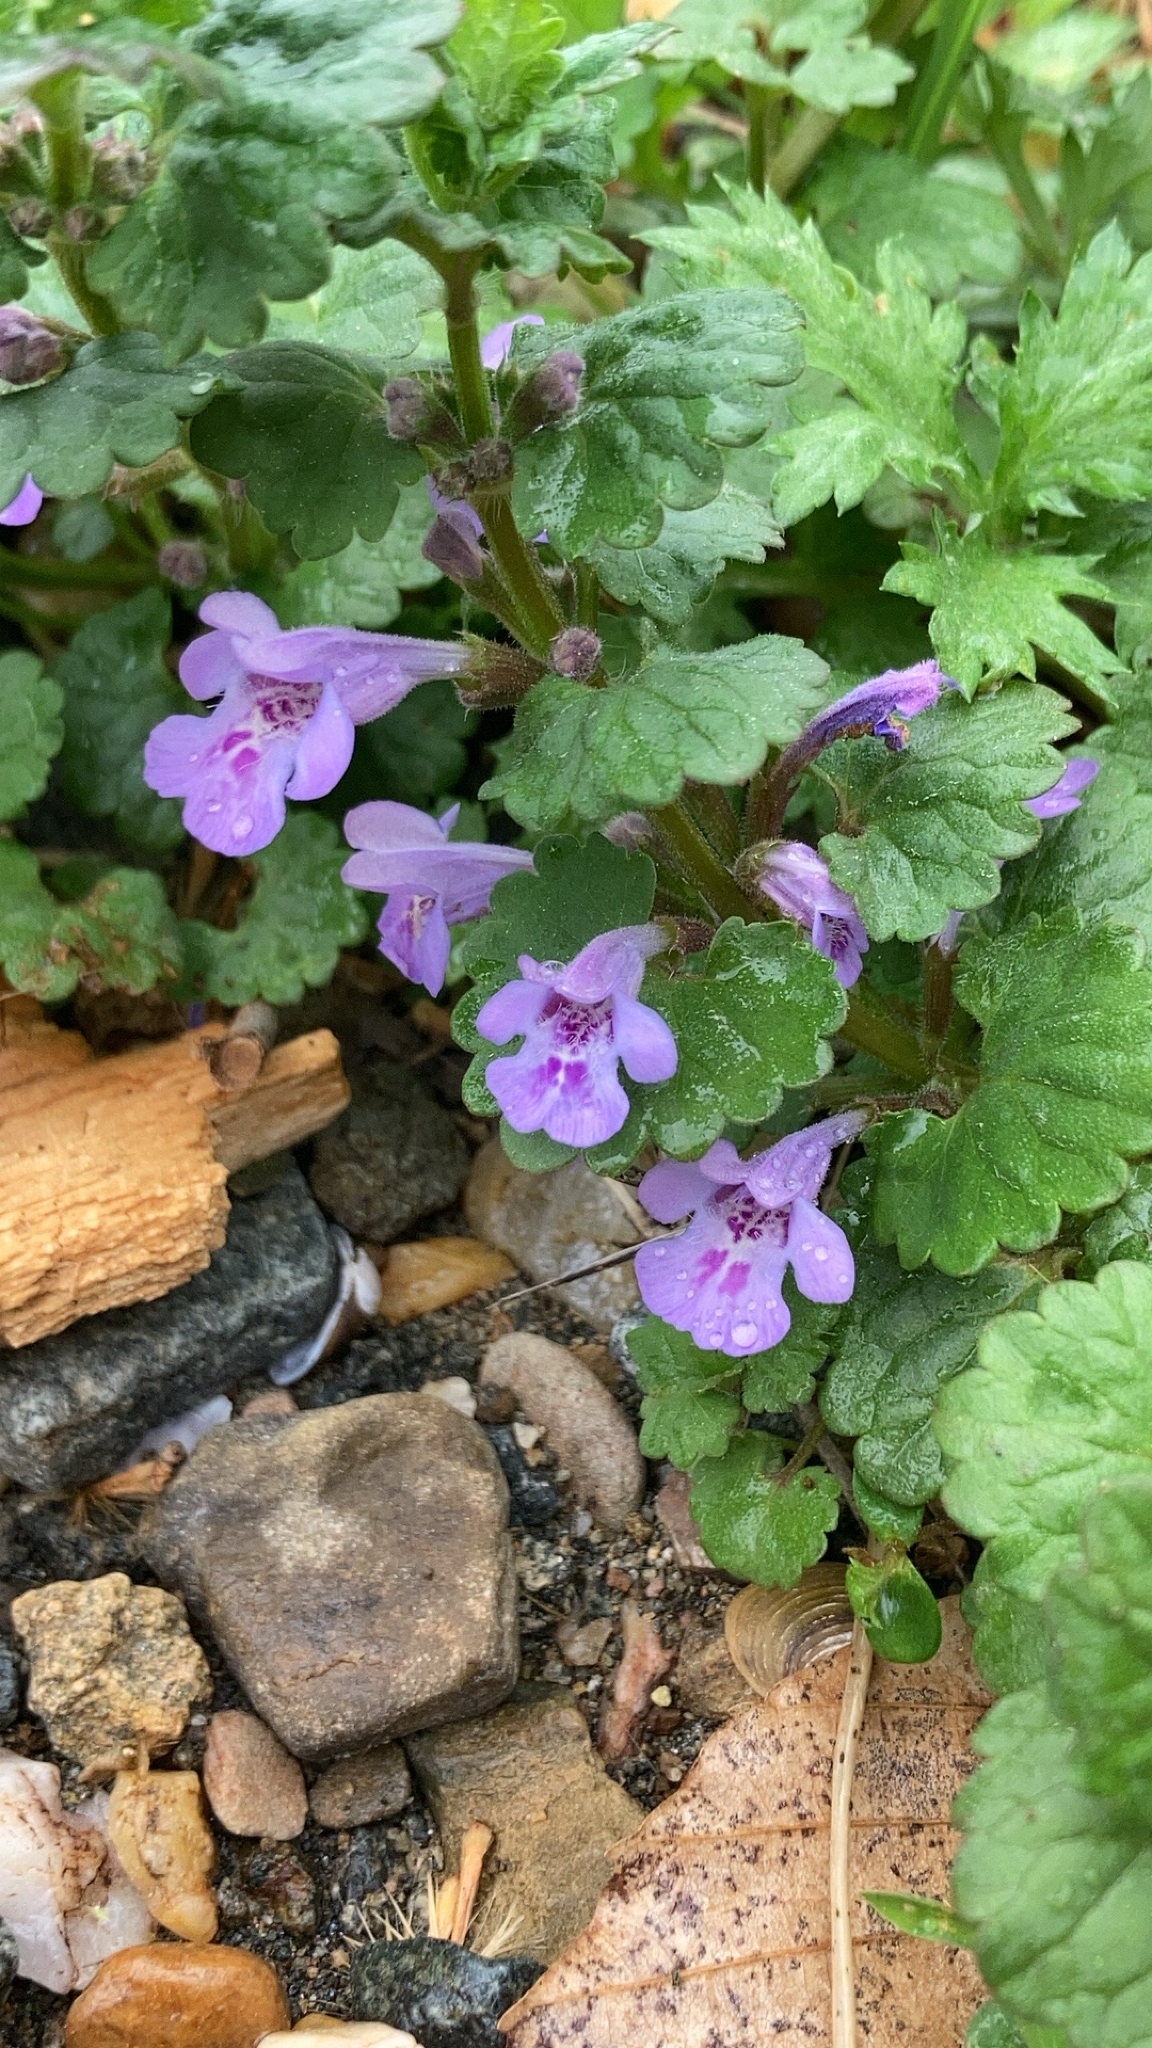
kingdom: Plantae
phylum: Tracheophyta
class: Magnoliopsida
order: Lamiales
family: Lamiaceae
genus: Glechoma
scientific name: Glechoma hederacea
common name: Ground ivy
